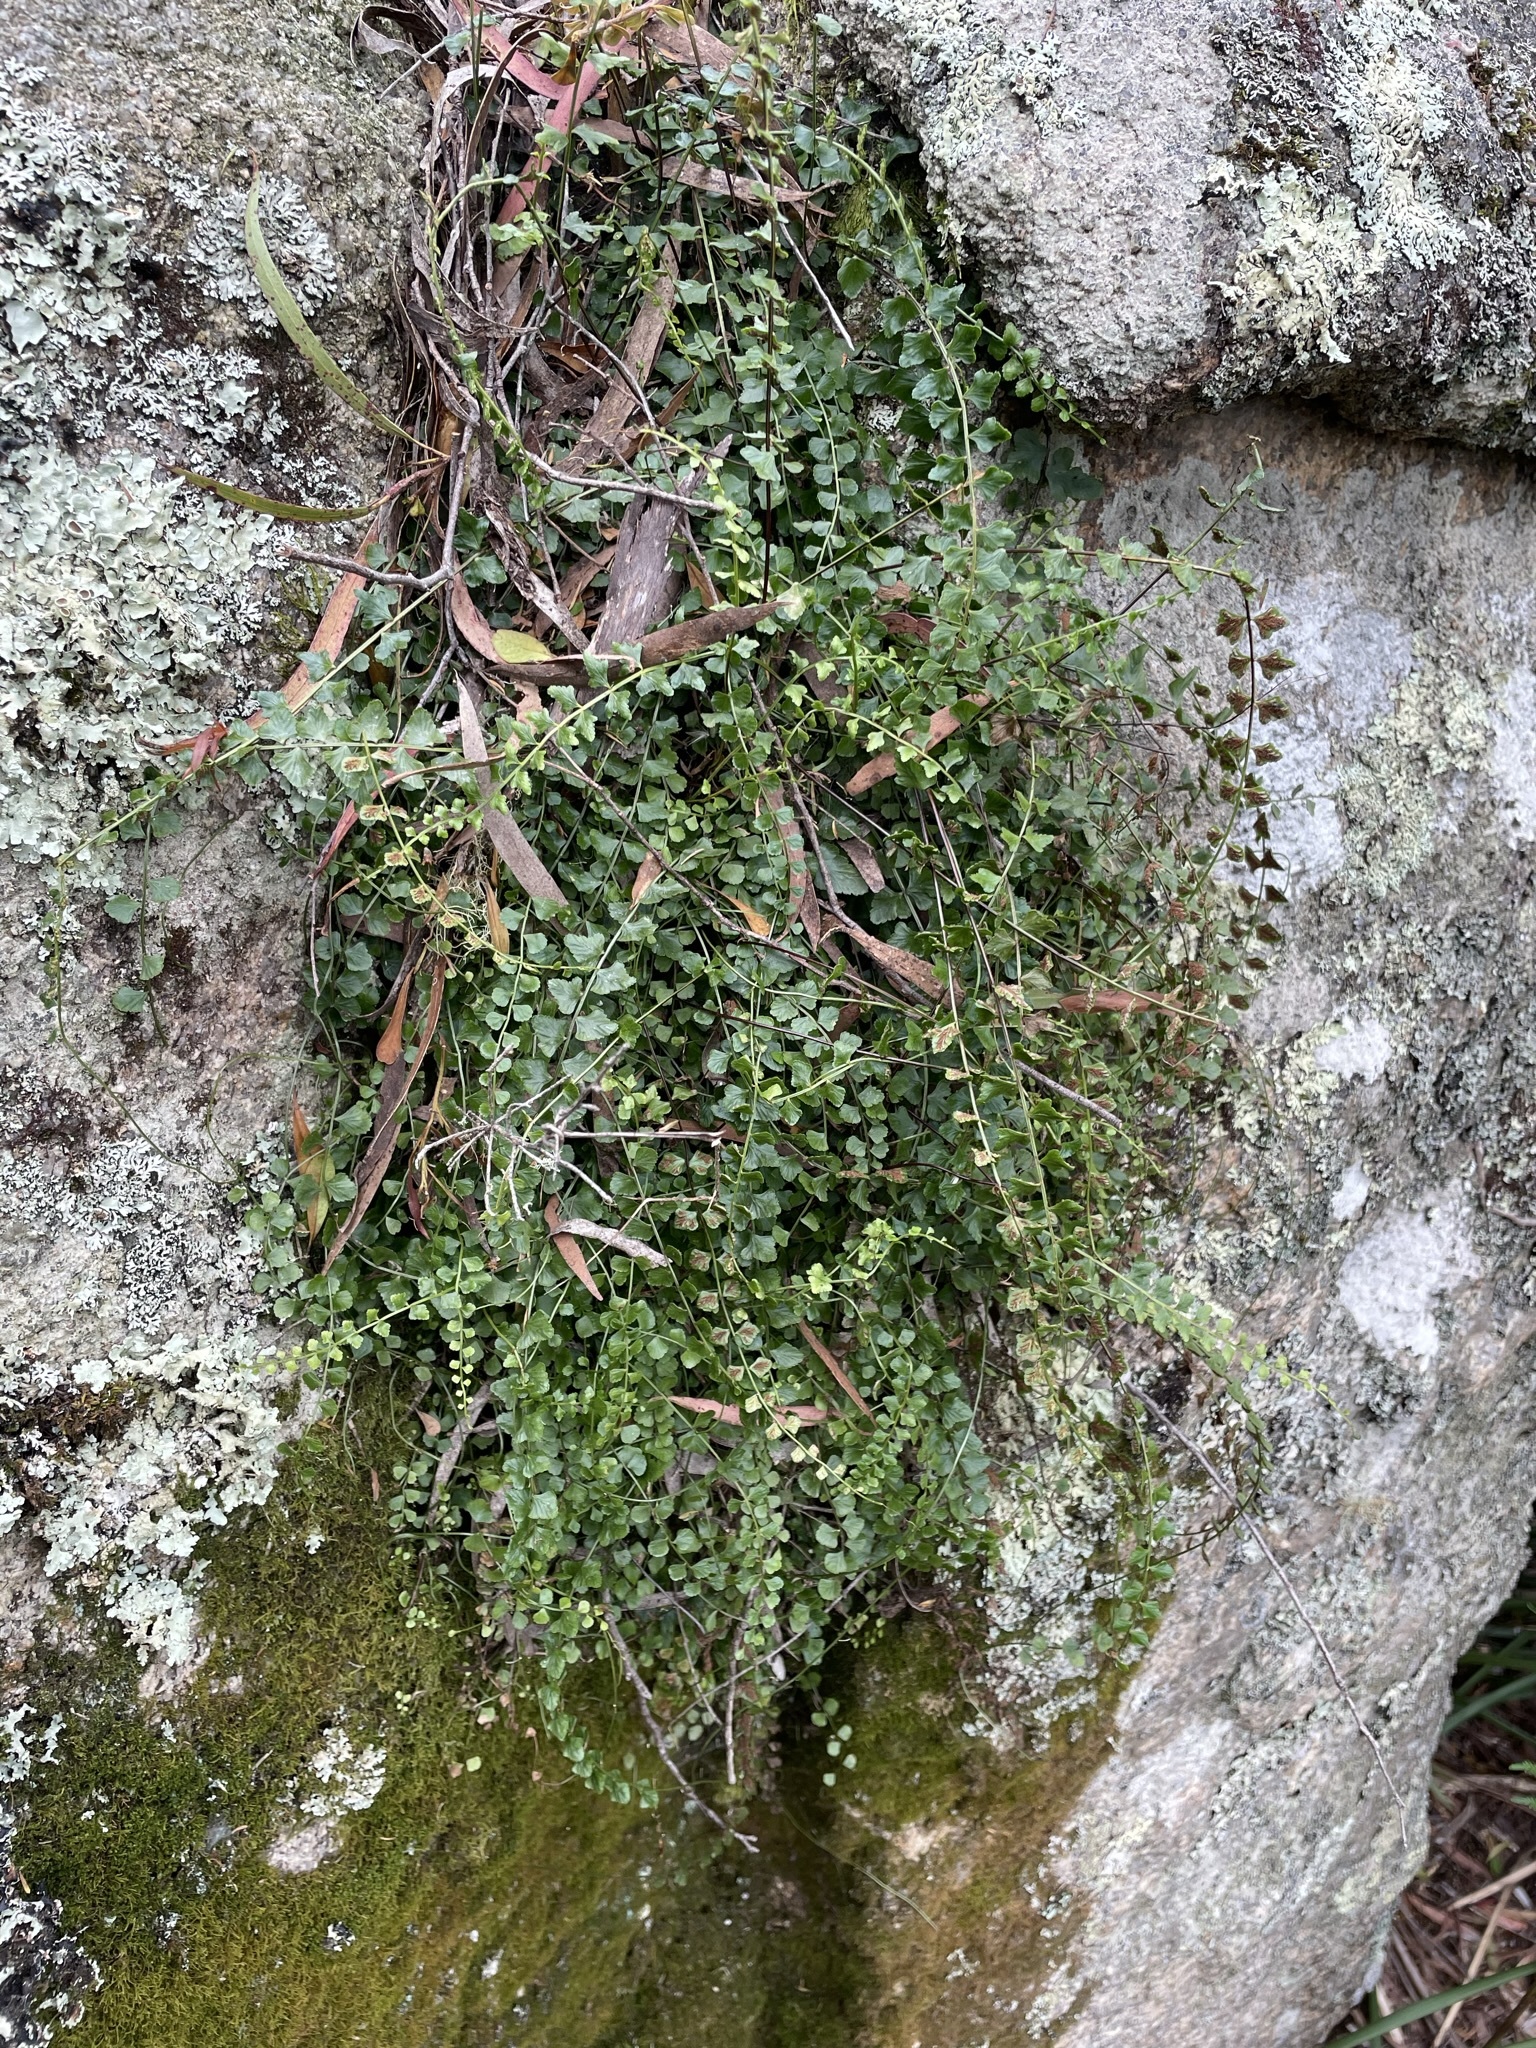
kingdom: Plantae
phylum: Tracheophyta
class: Polypodiopsida
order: Polypodiales
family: Aspleniaceae
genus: Asplenium
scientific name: Asplenium flabellifolium
